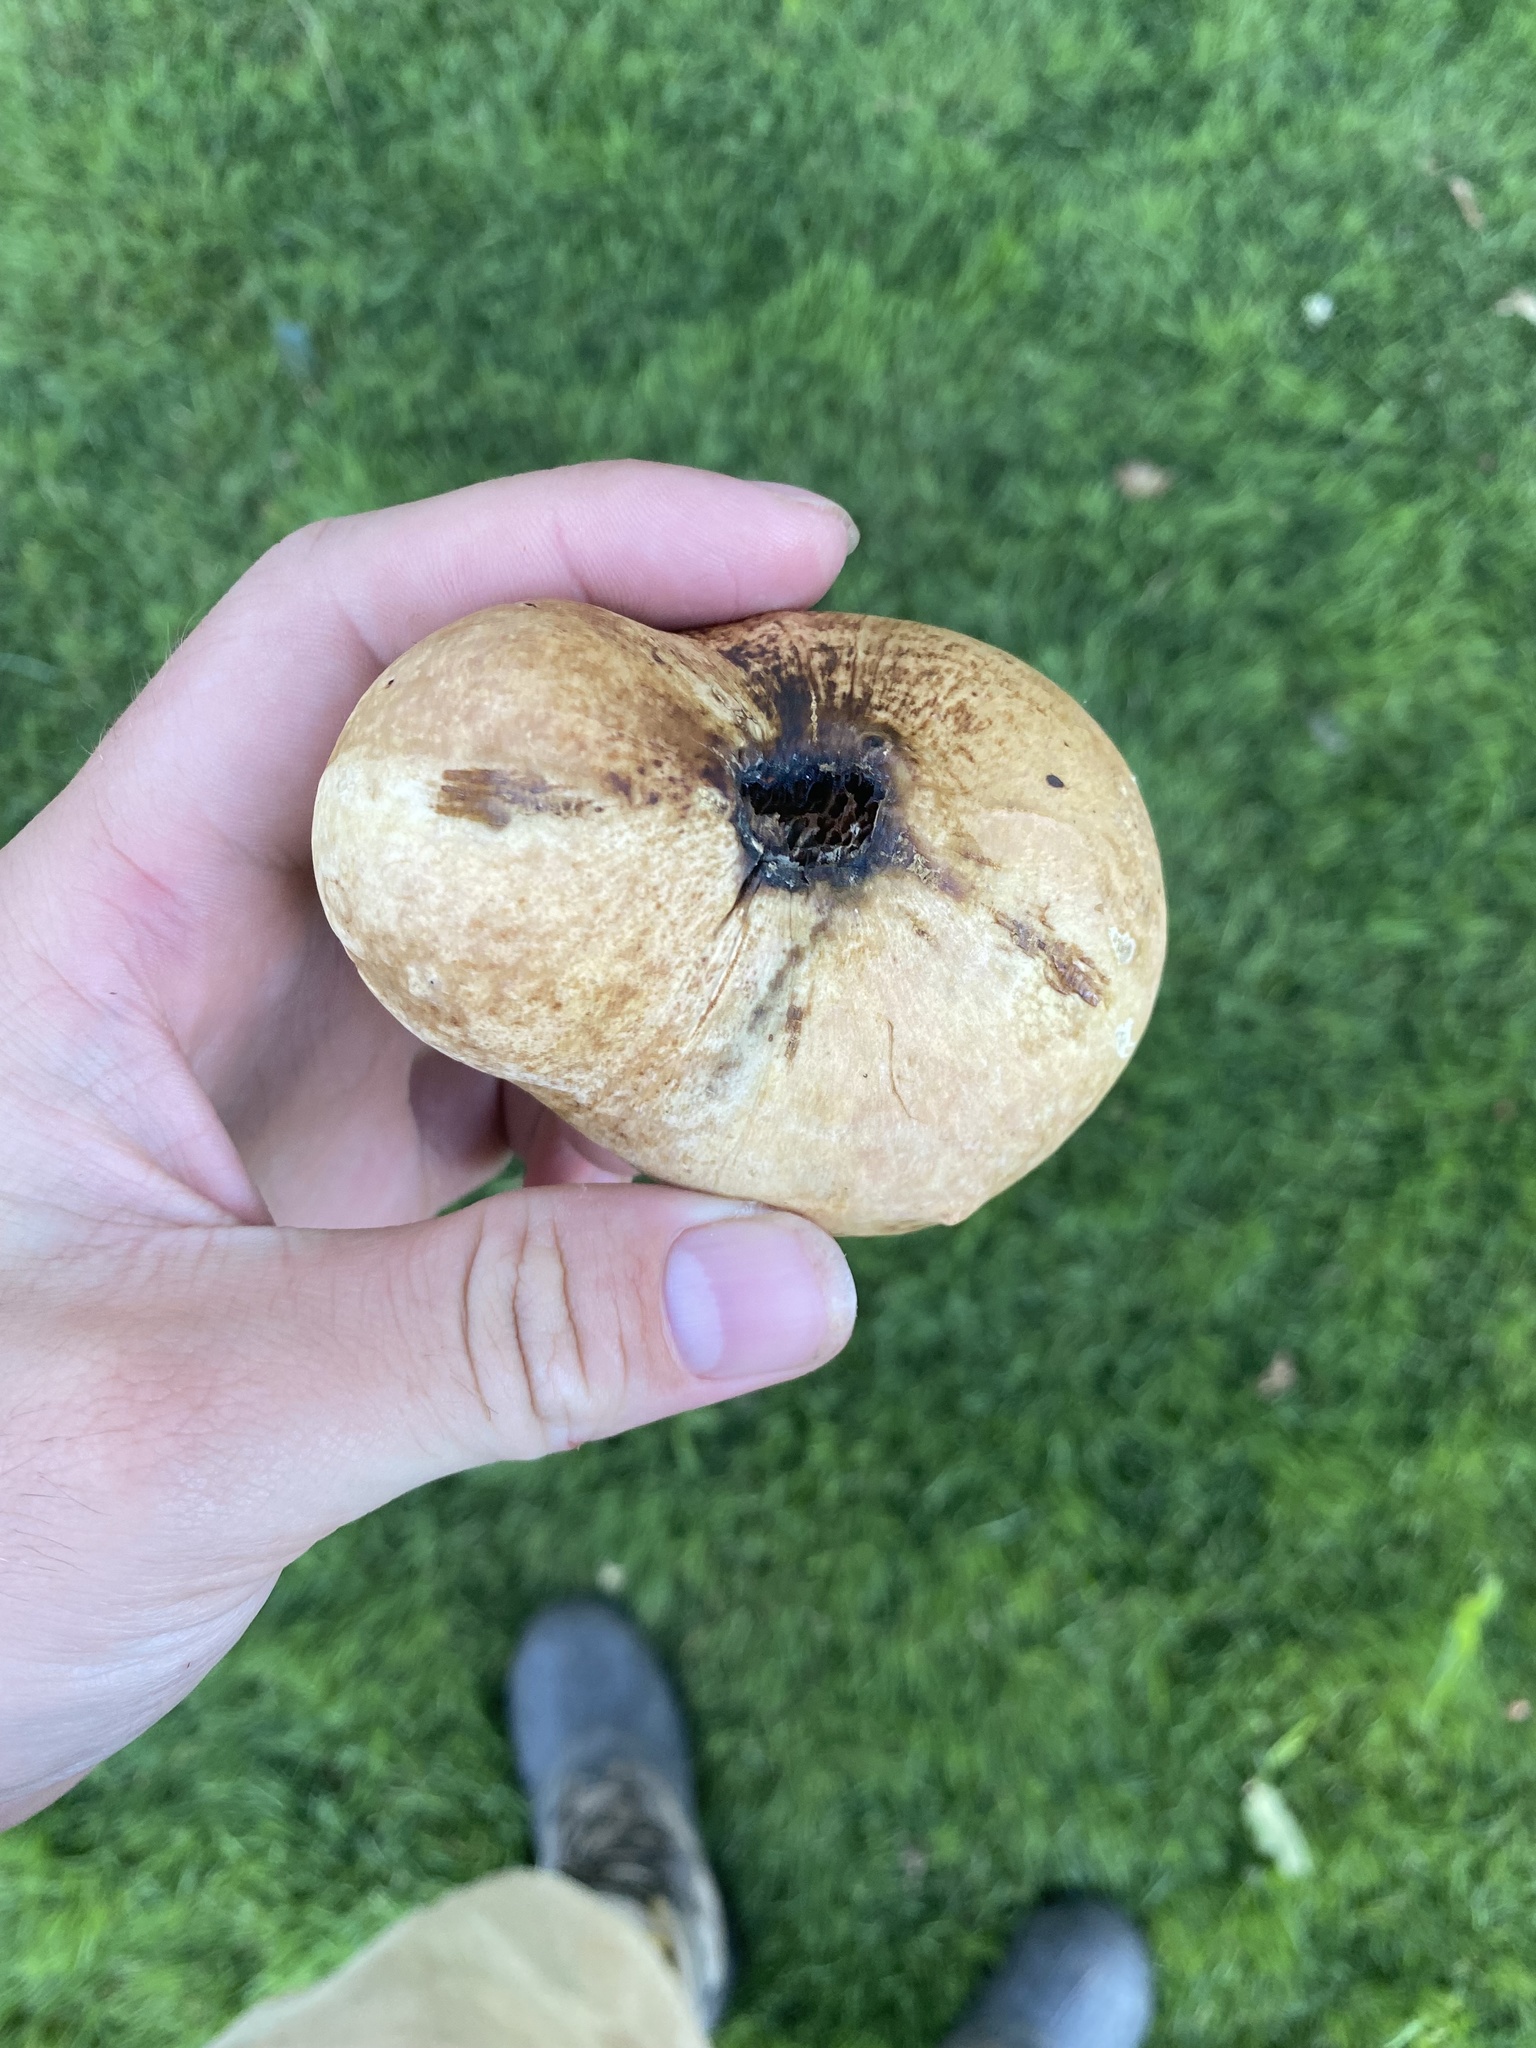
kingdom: Animalia
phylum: Arthropoda
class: Insecta
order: Hymenoptera
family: Cynipidae
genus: Andricus
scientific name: Andricus quercuscalifornicus
